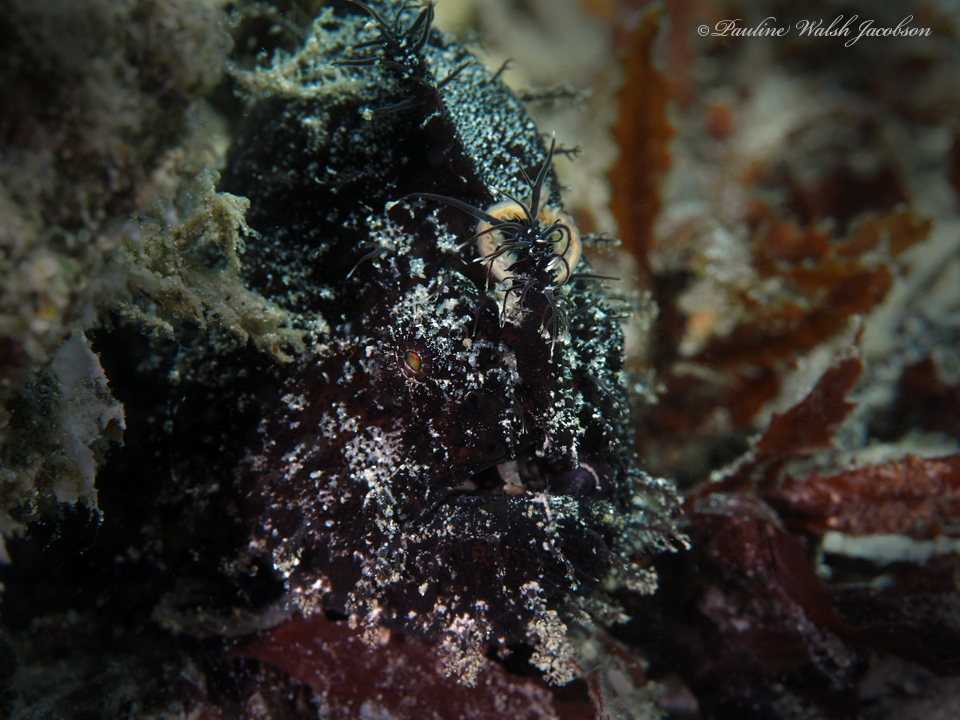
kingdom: Animalia
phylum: Chordata
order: Lophiiformes
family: Antennariidae
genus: Antennarius
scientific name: Antennarius striatus
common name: Striated frogfish
